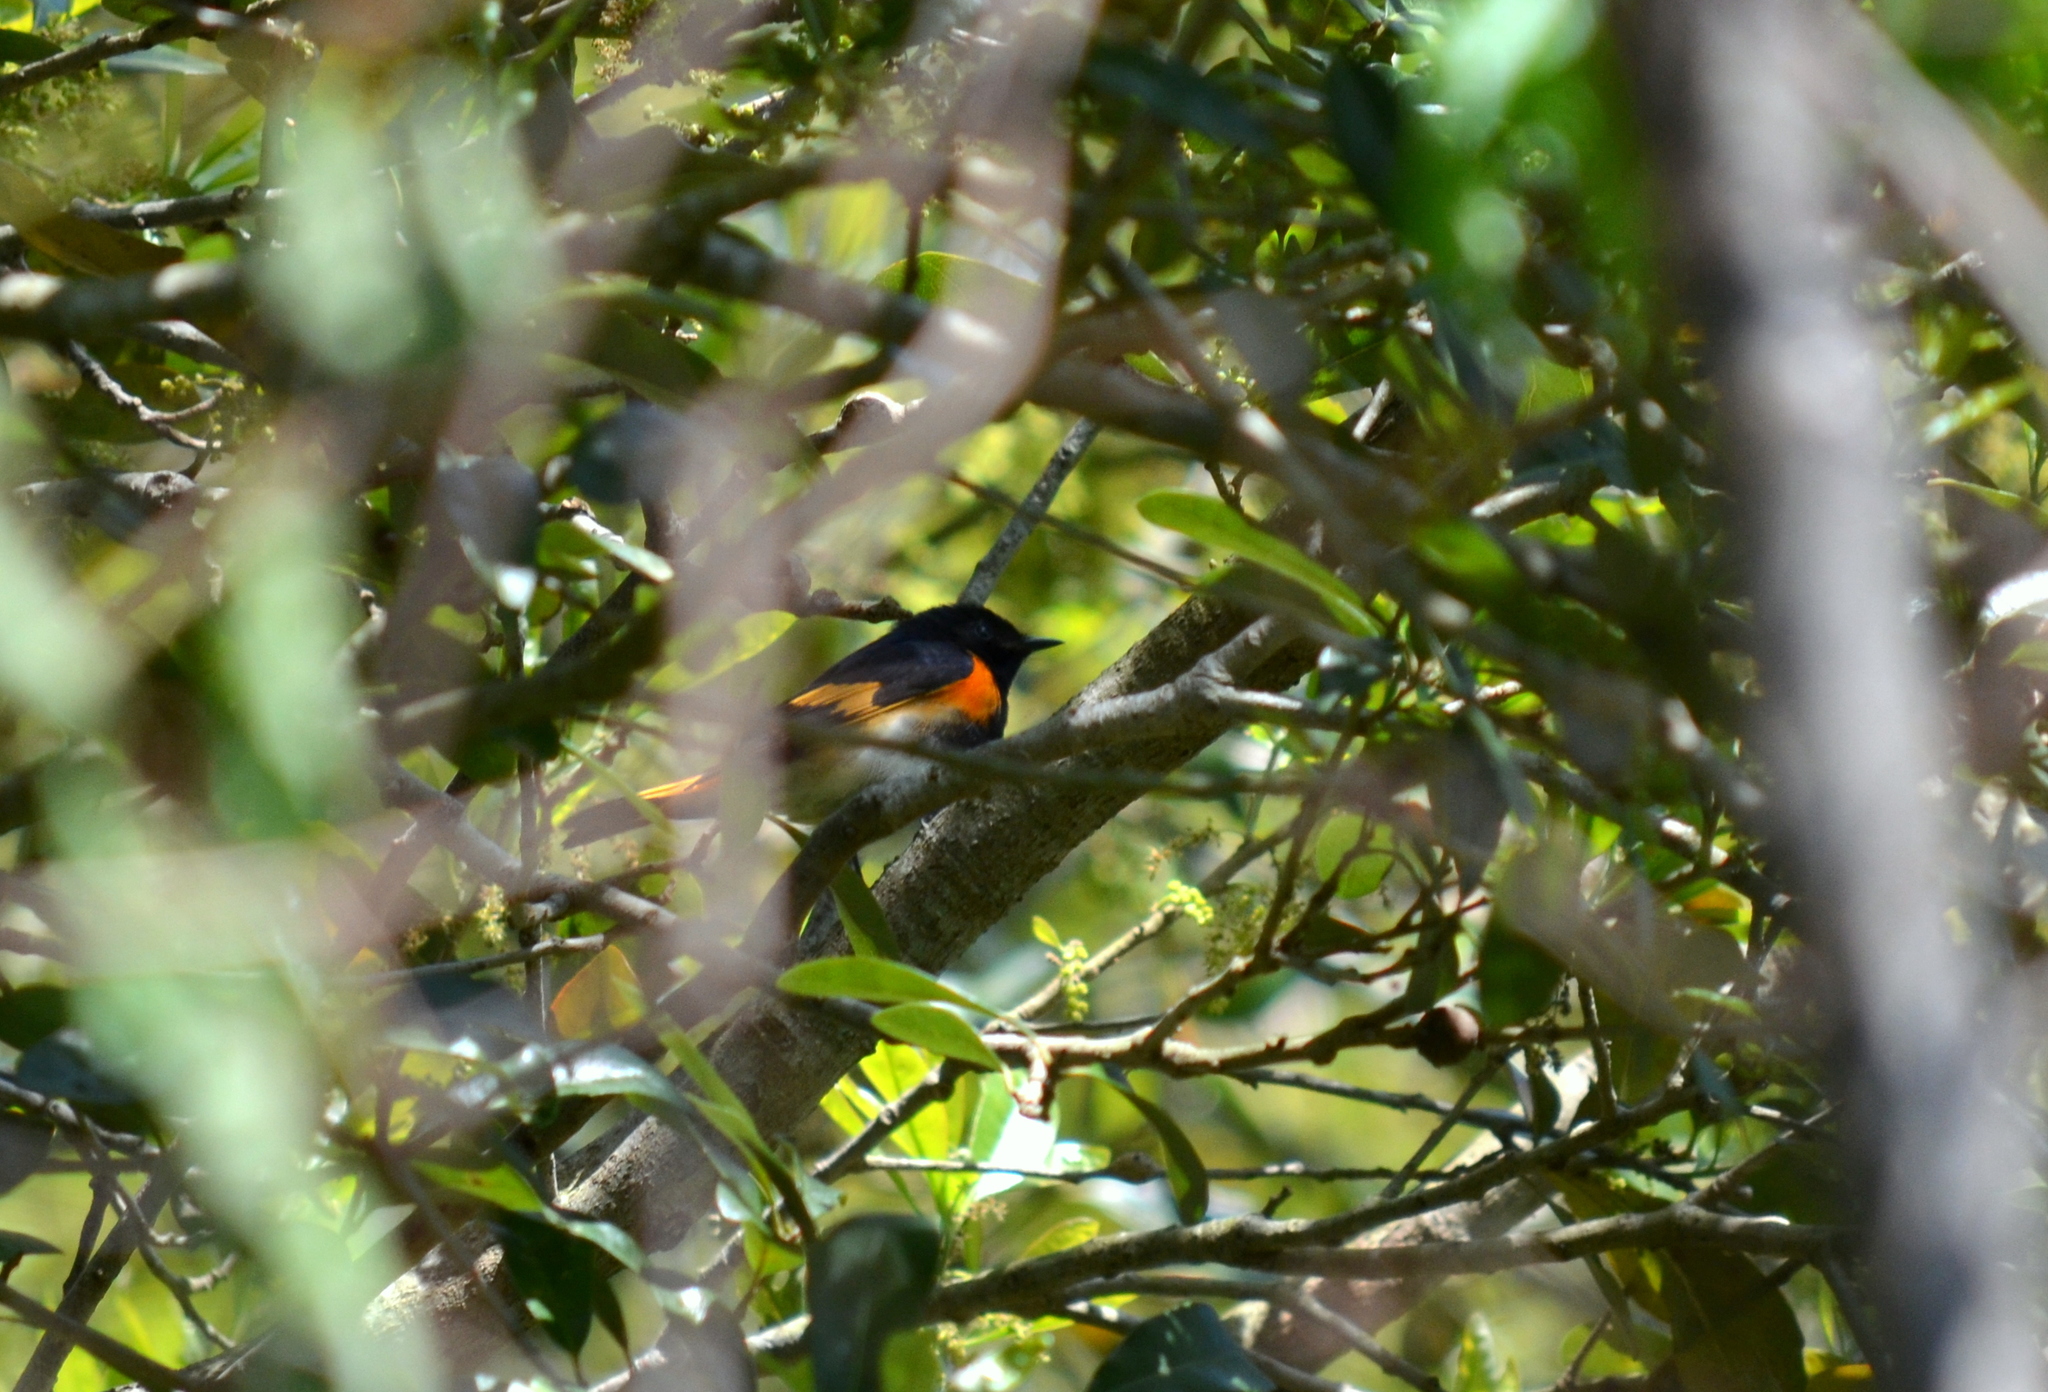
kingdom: Animalia
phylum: Chordata
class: Aves
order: Passeriformes
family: Parulidae
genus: Setophaga
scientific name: Setophaga ruticilla
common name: American redstart
